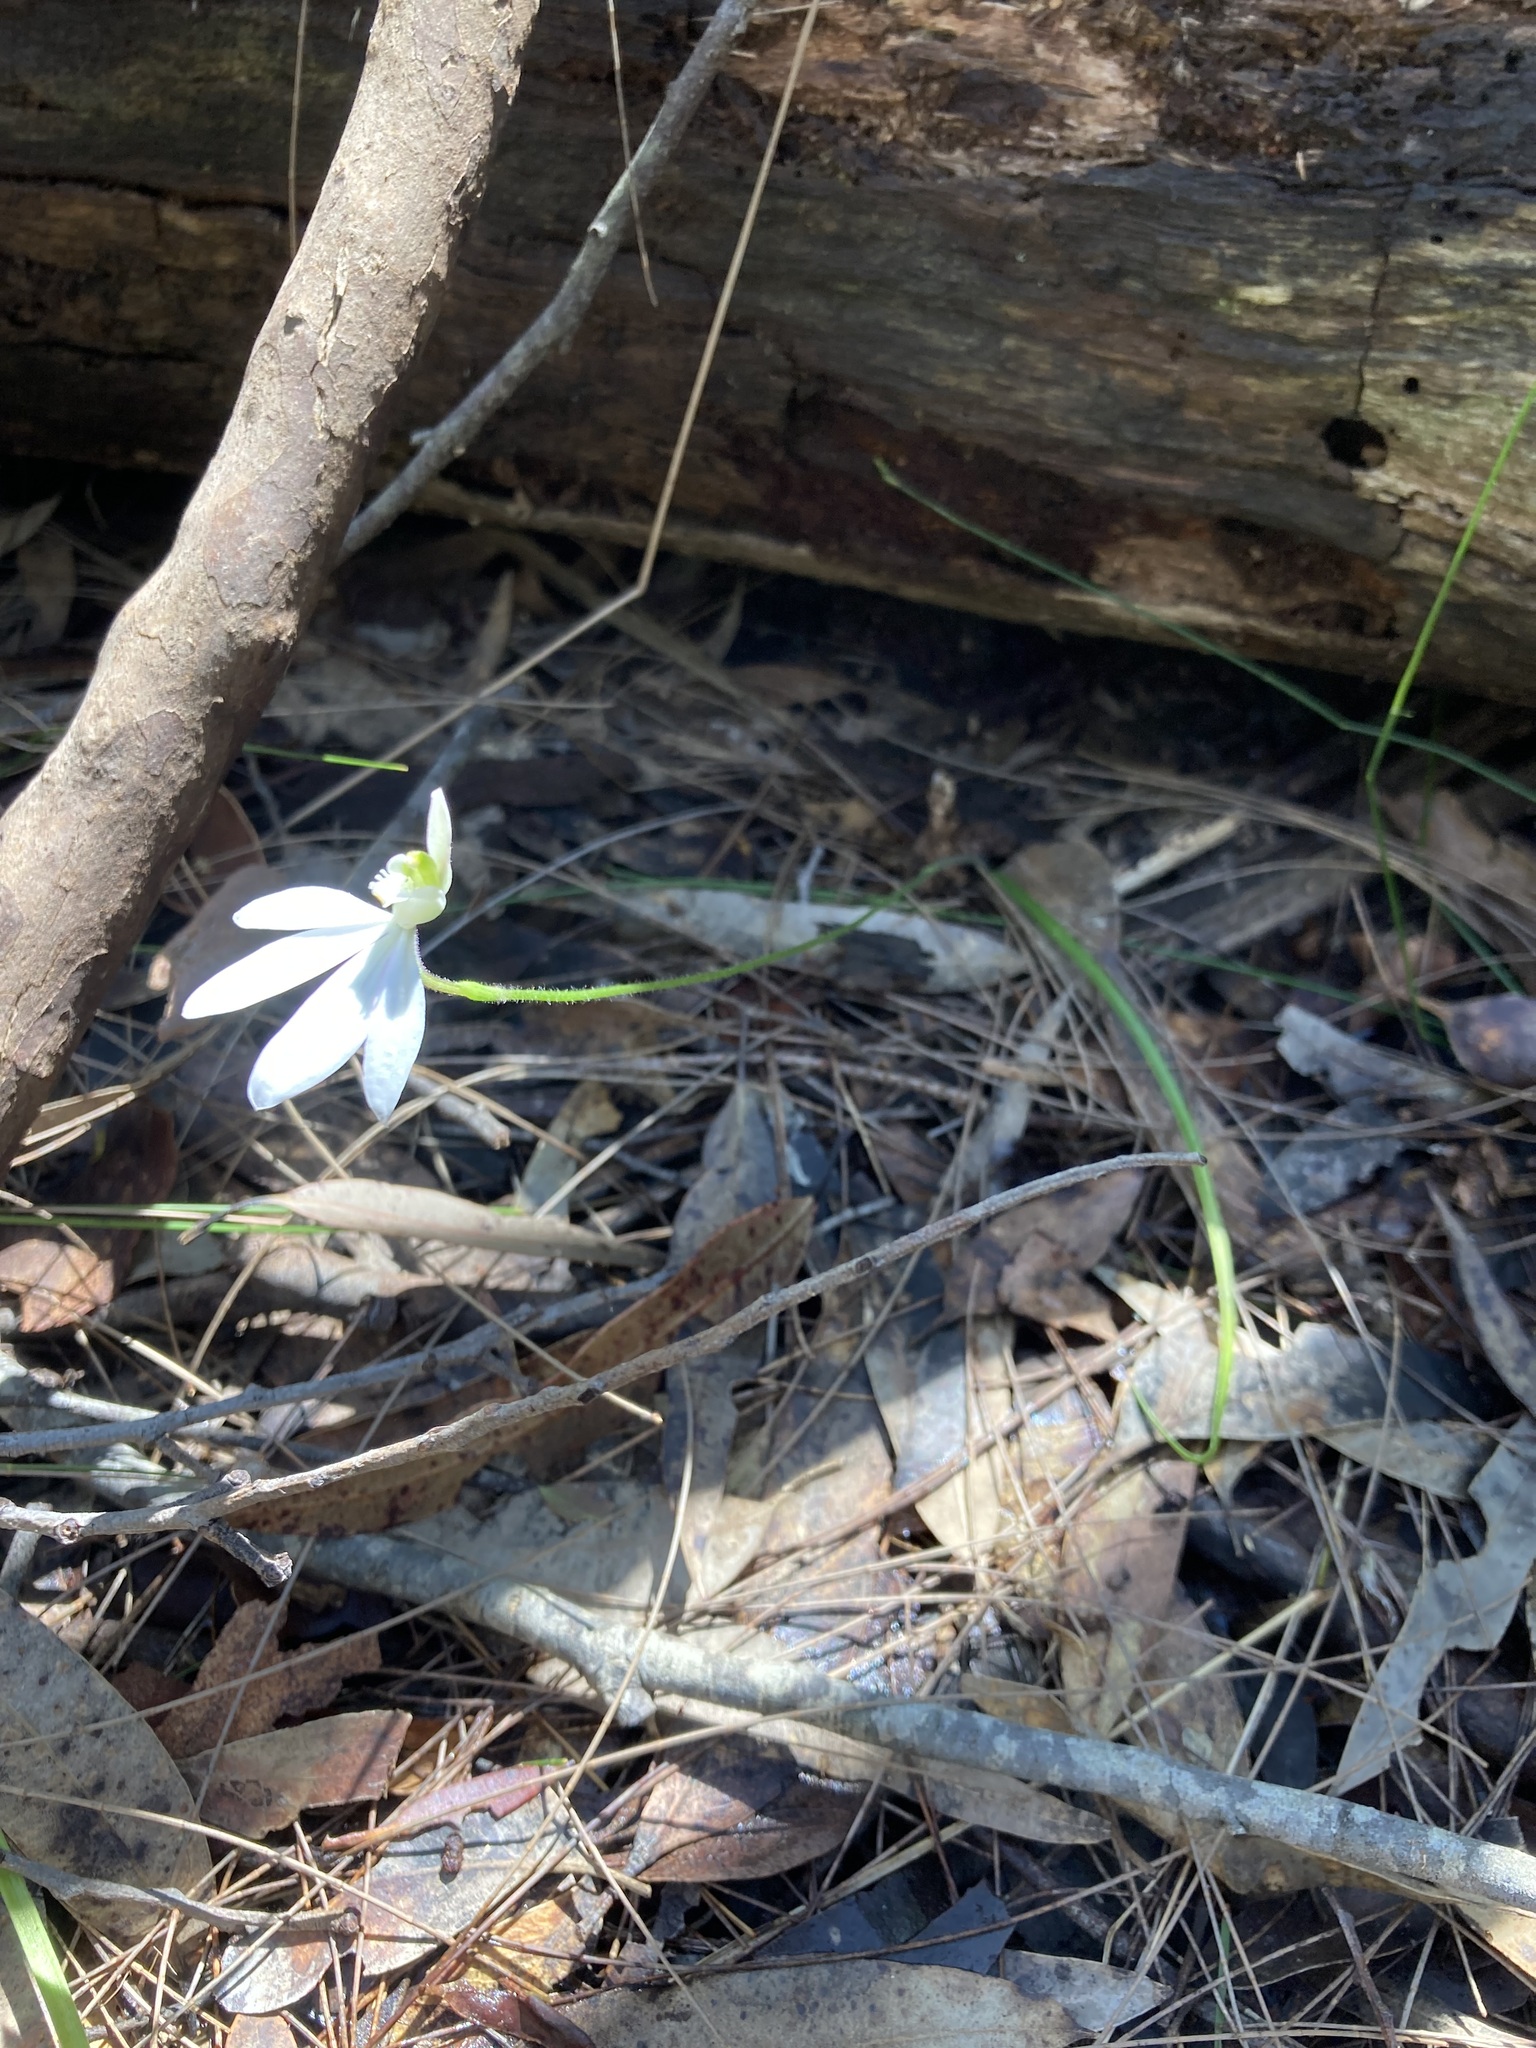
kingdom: Plantae
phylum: Tracheophyta
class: Liliopsida
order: Asparagales
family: Orchidaceae
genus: Caladenia
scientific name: Caladenia catenata
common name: White caladenia
